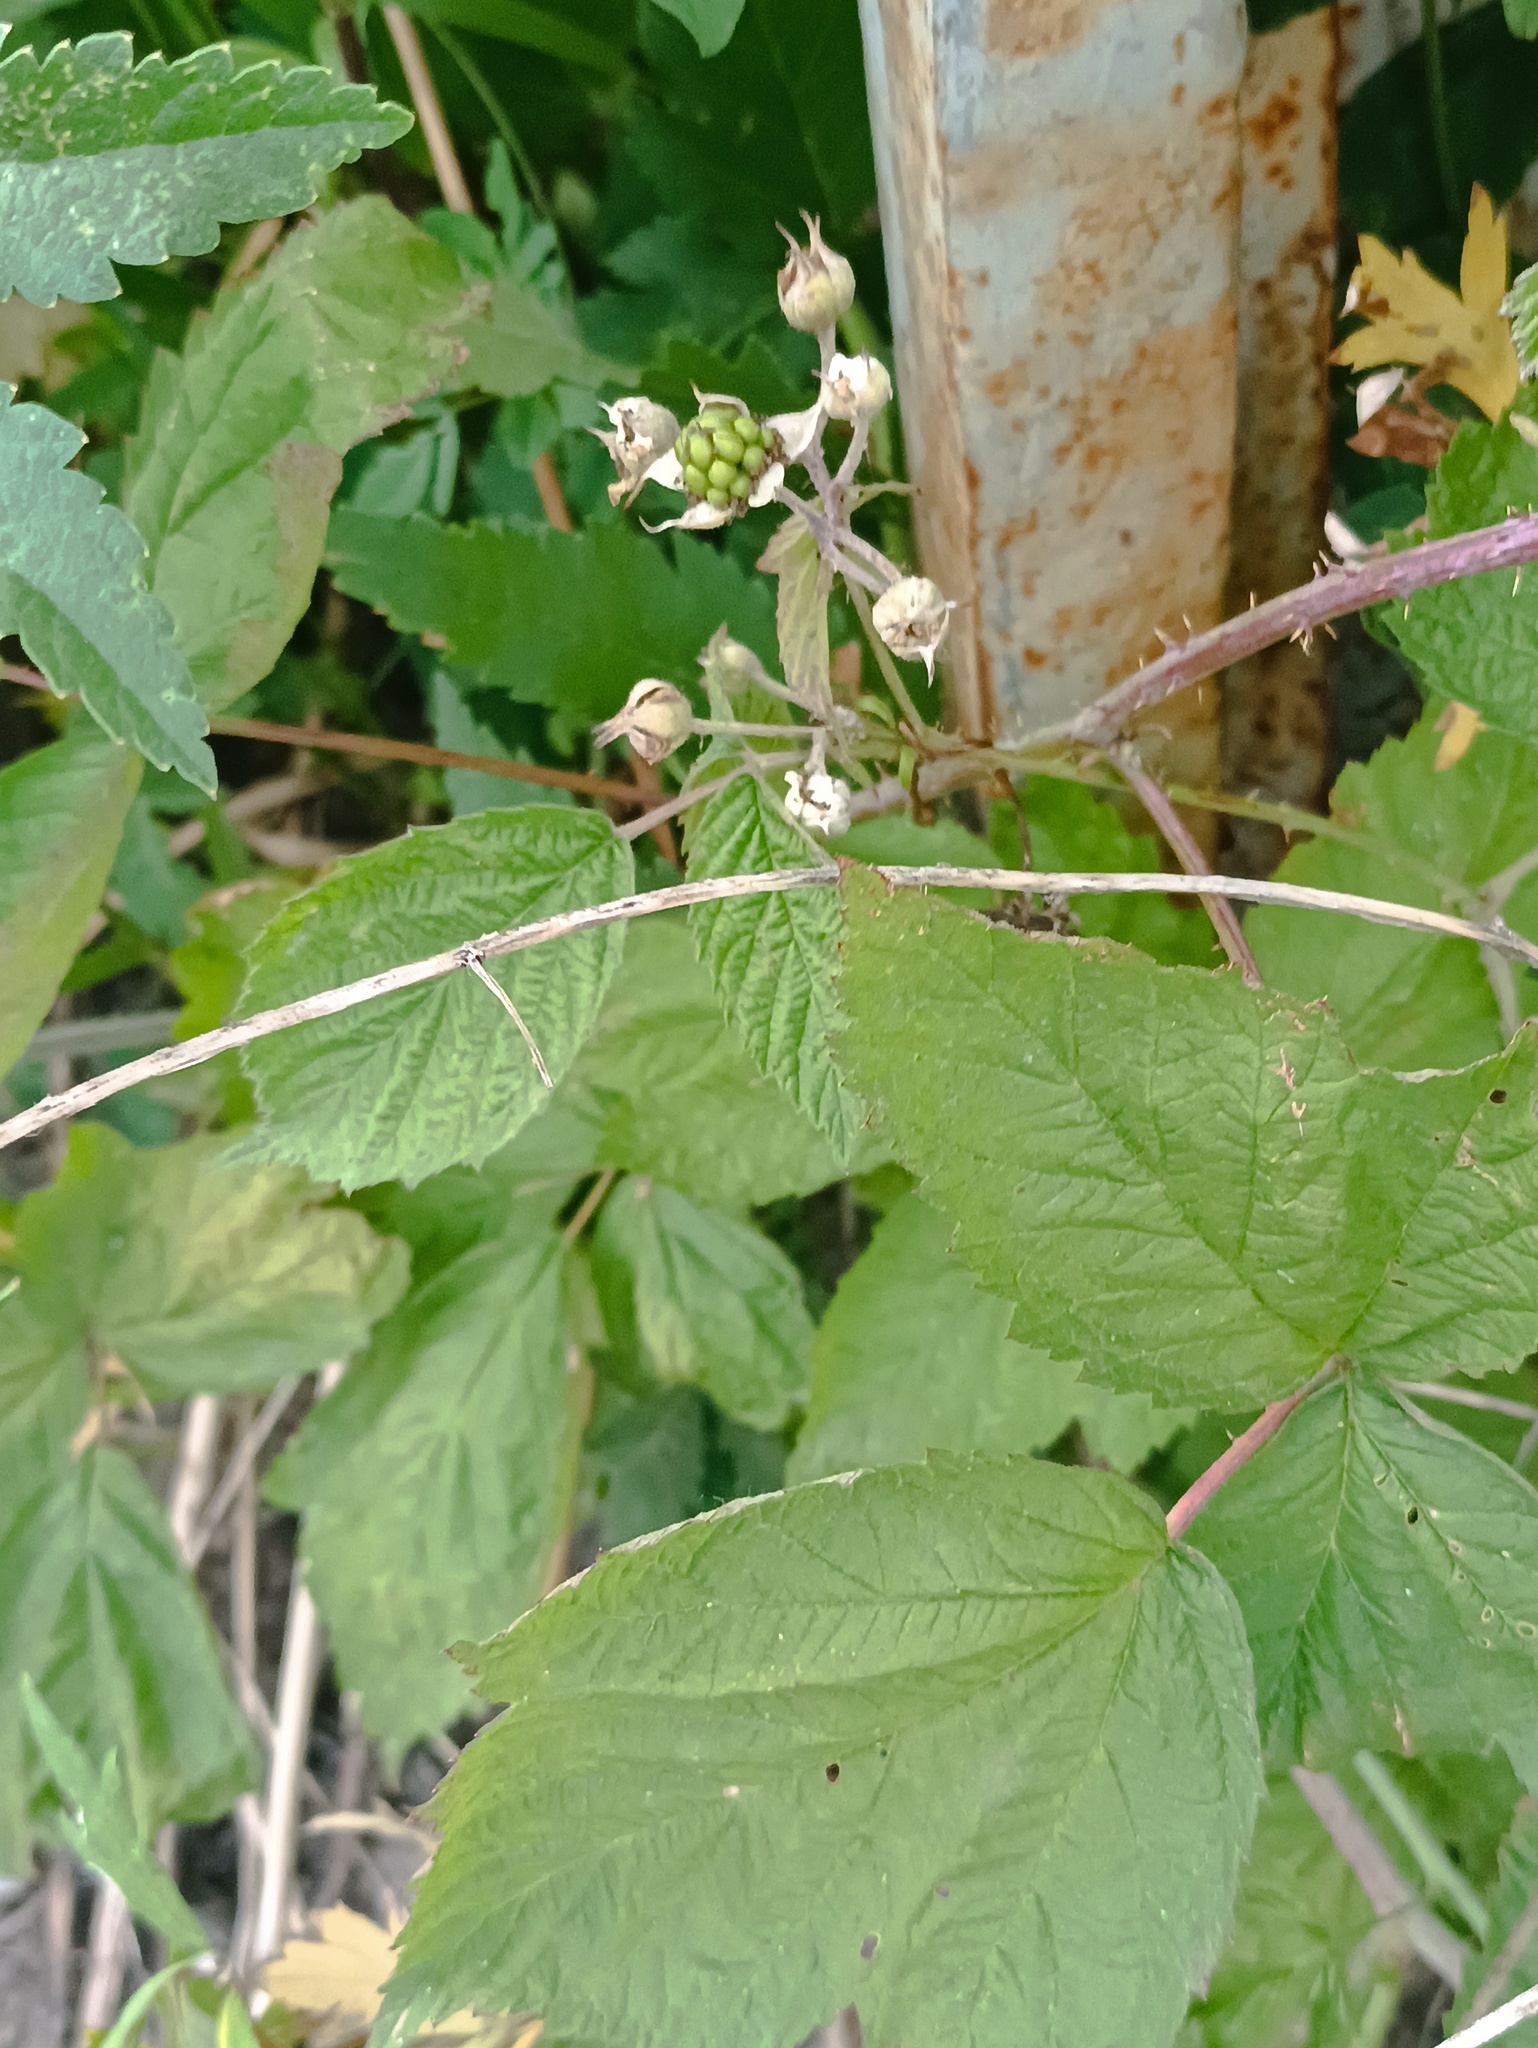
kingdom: Plantae
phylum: Tracheophyta
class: Magnoliopsida
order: Rosales
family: Rosaceae
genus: Rubus
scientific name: Rubus caesius
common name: Dewberry
